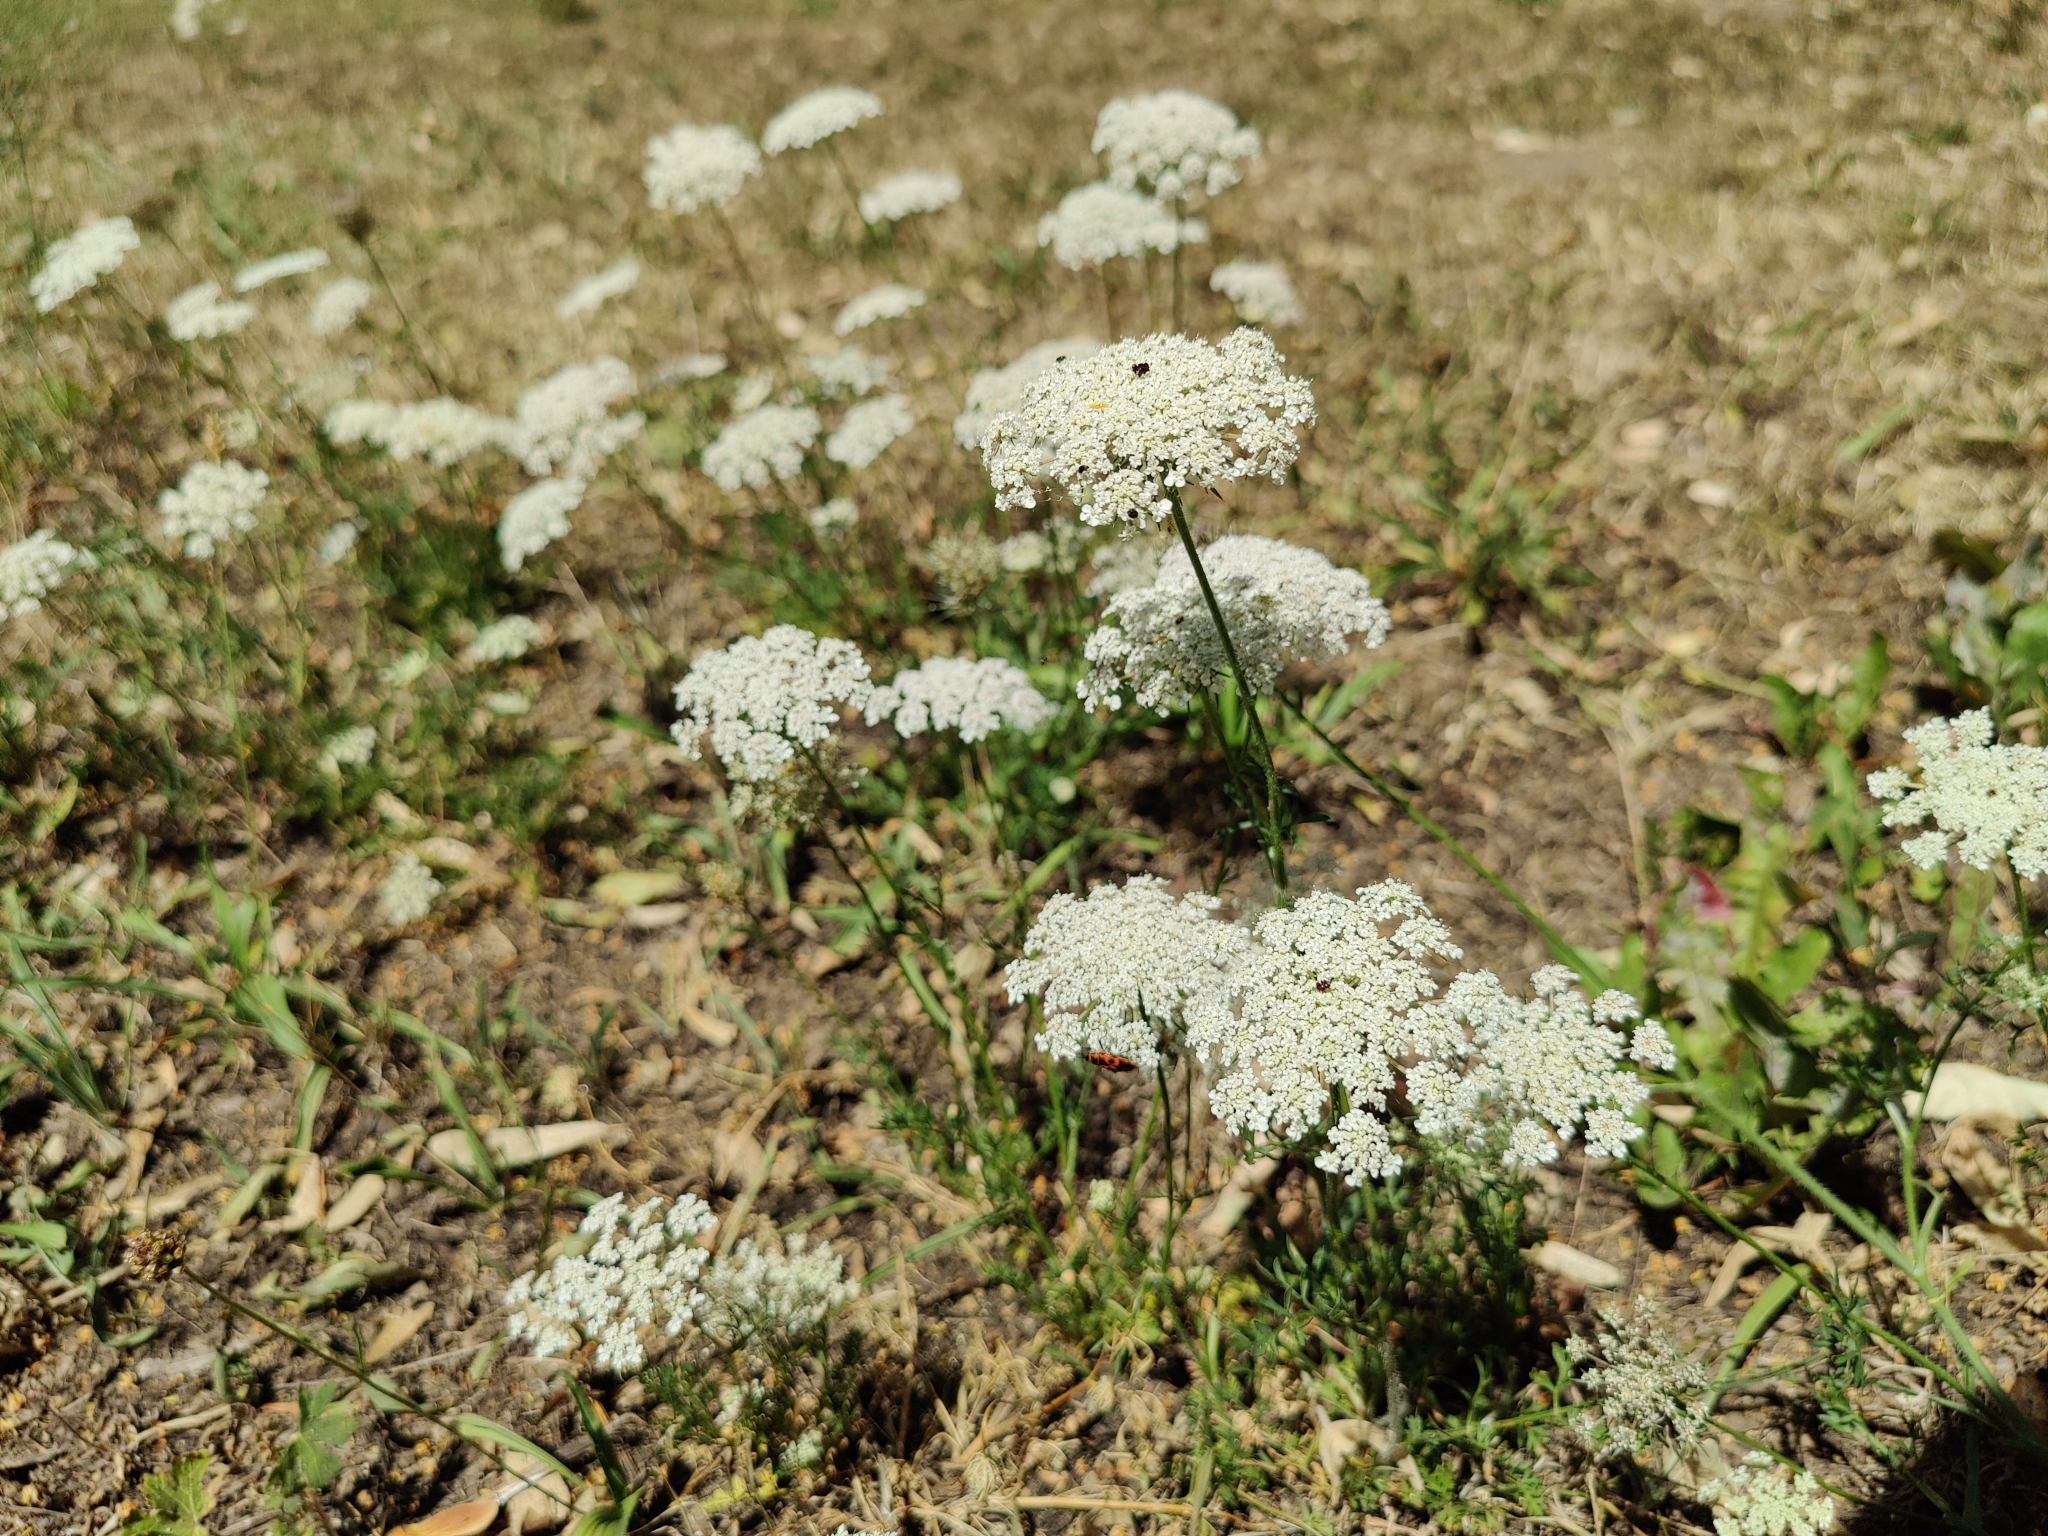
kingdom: Plantae
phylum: Tracheophyta
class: Magnoliopsida
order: Apiales
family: Apiaceae
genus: Daucus
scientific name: Daucus carota
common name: Wild carrot
